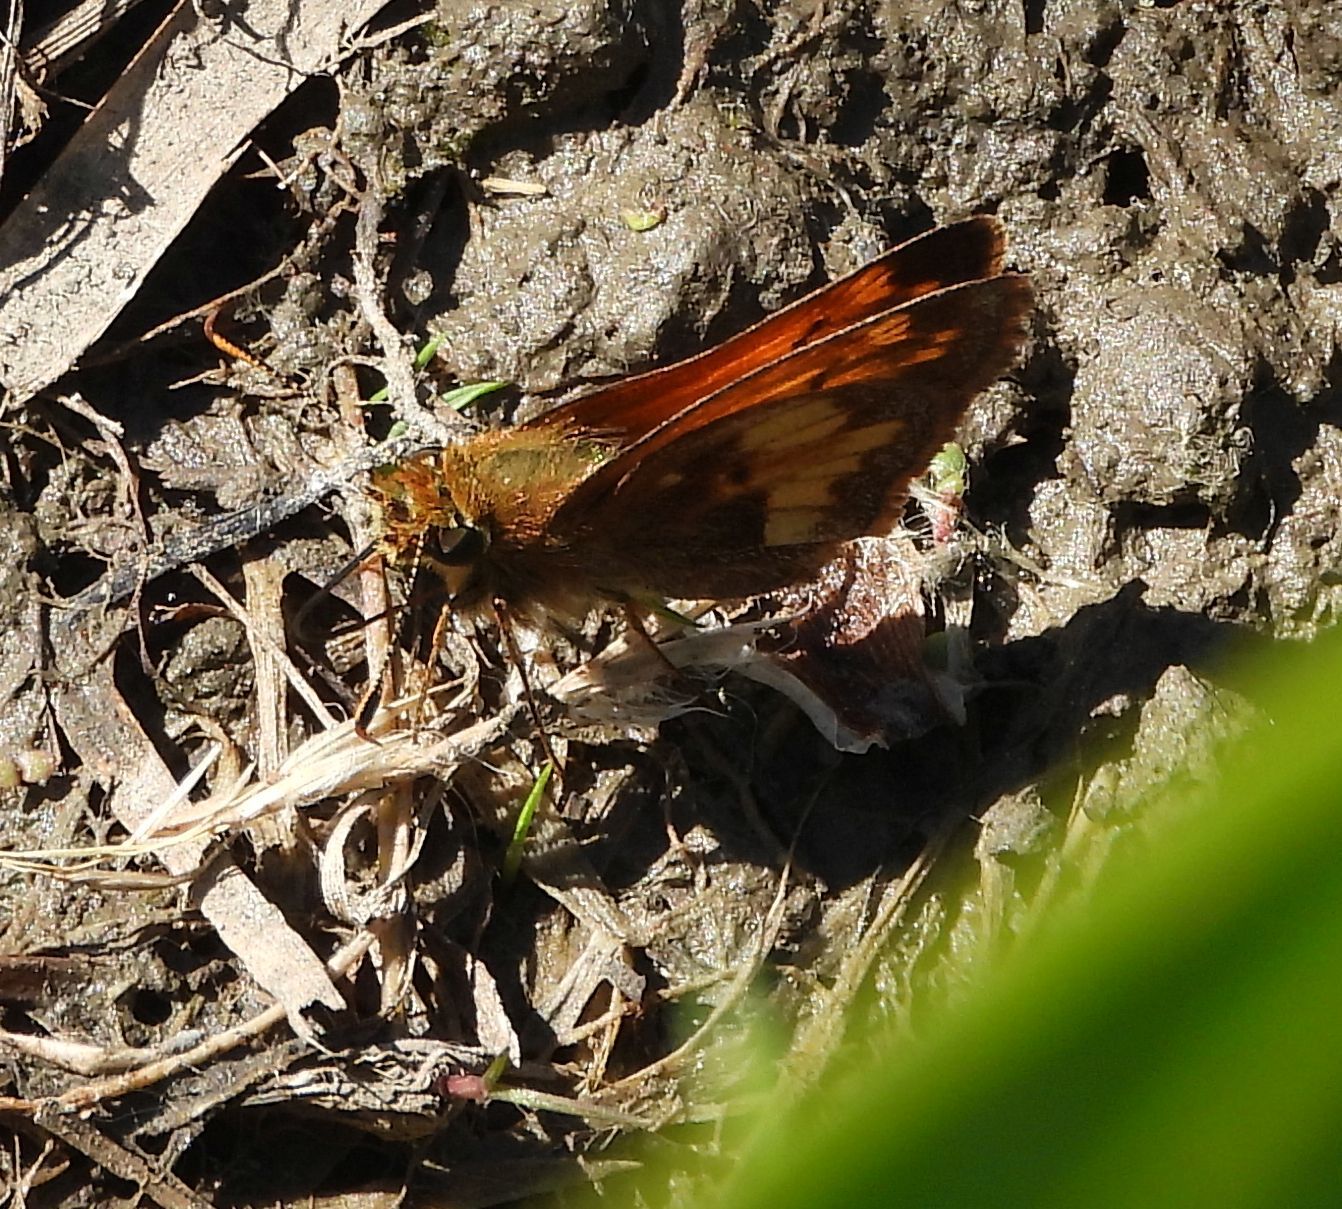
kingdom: Animalia
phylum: Arthropoda
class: Insecta
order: Lepidoptera
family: Hesperiidae
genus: Lon
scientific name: Lon hobomok
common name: Hobomok skipper
